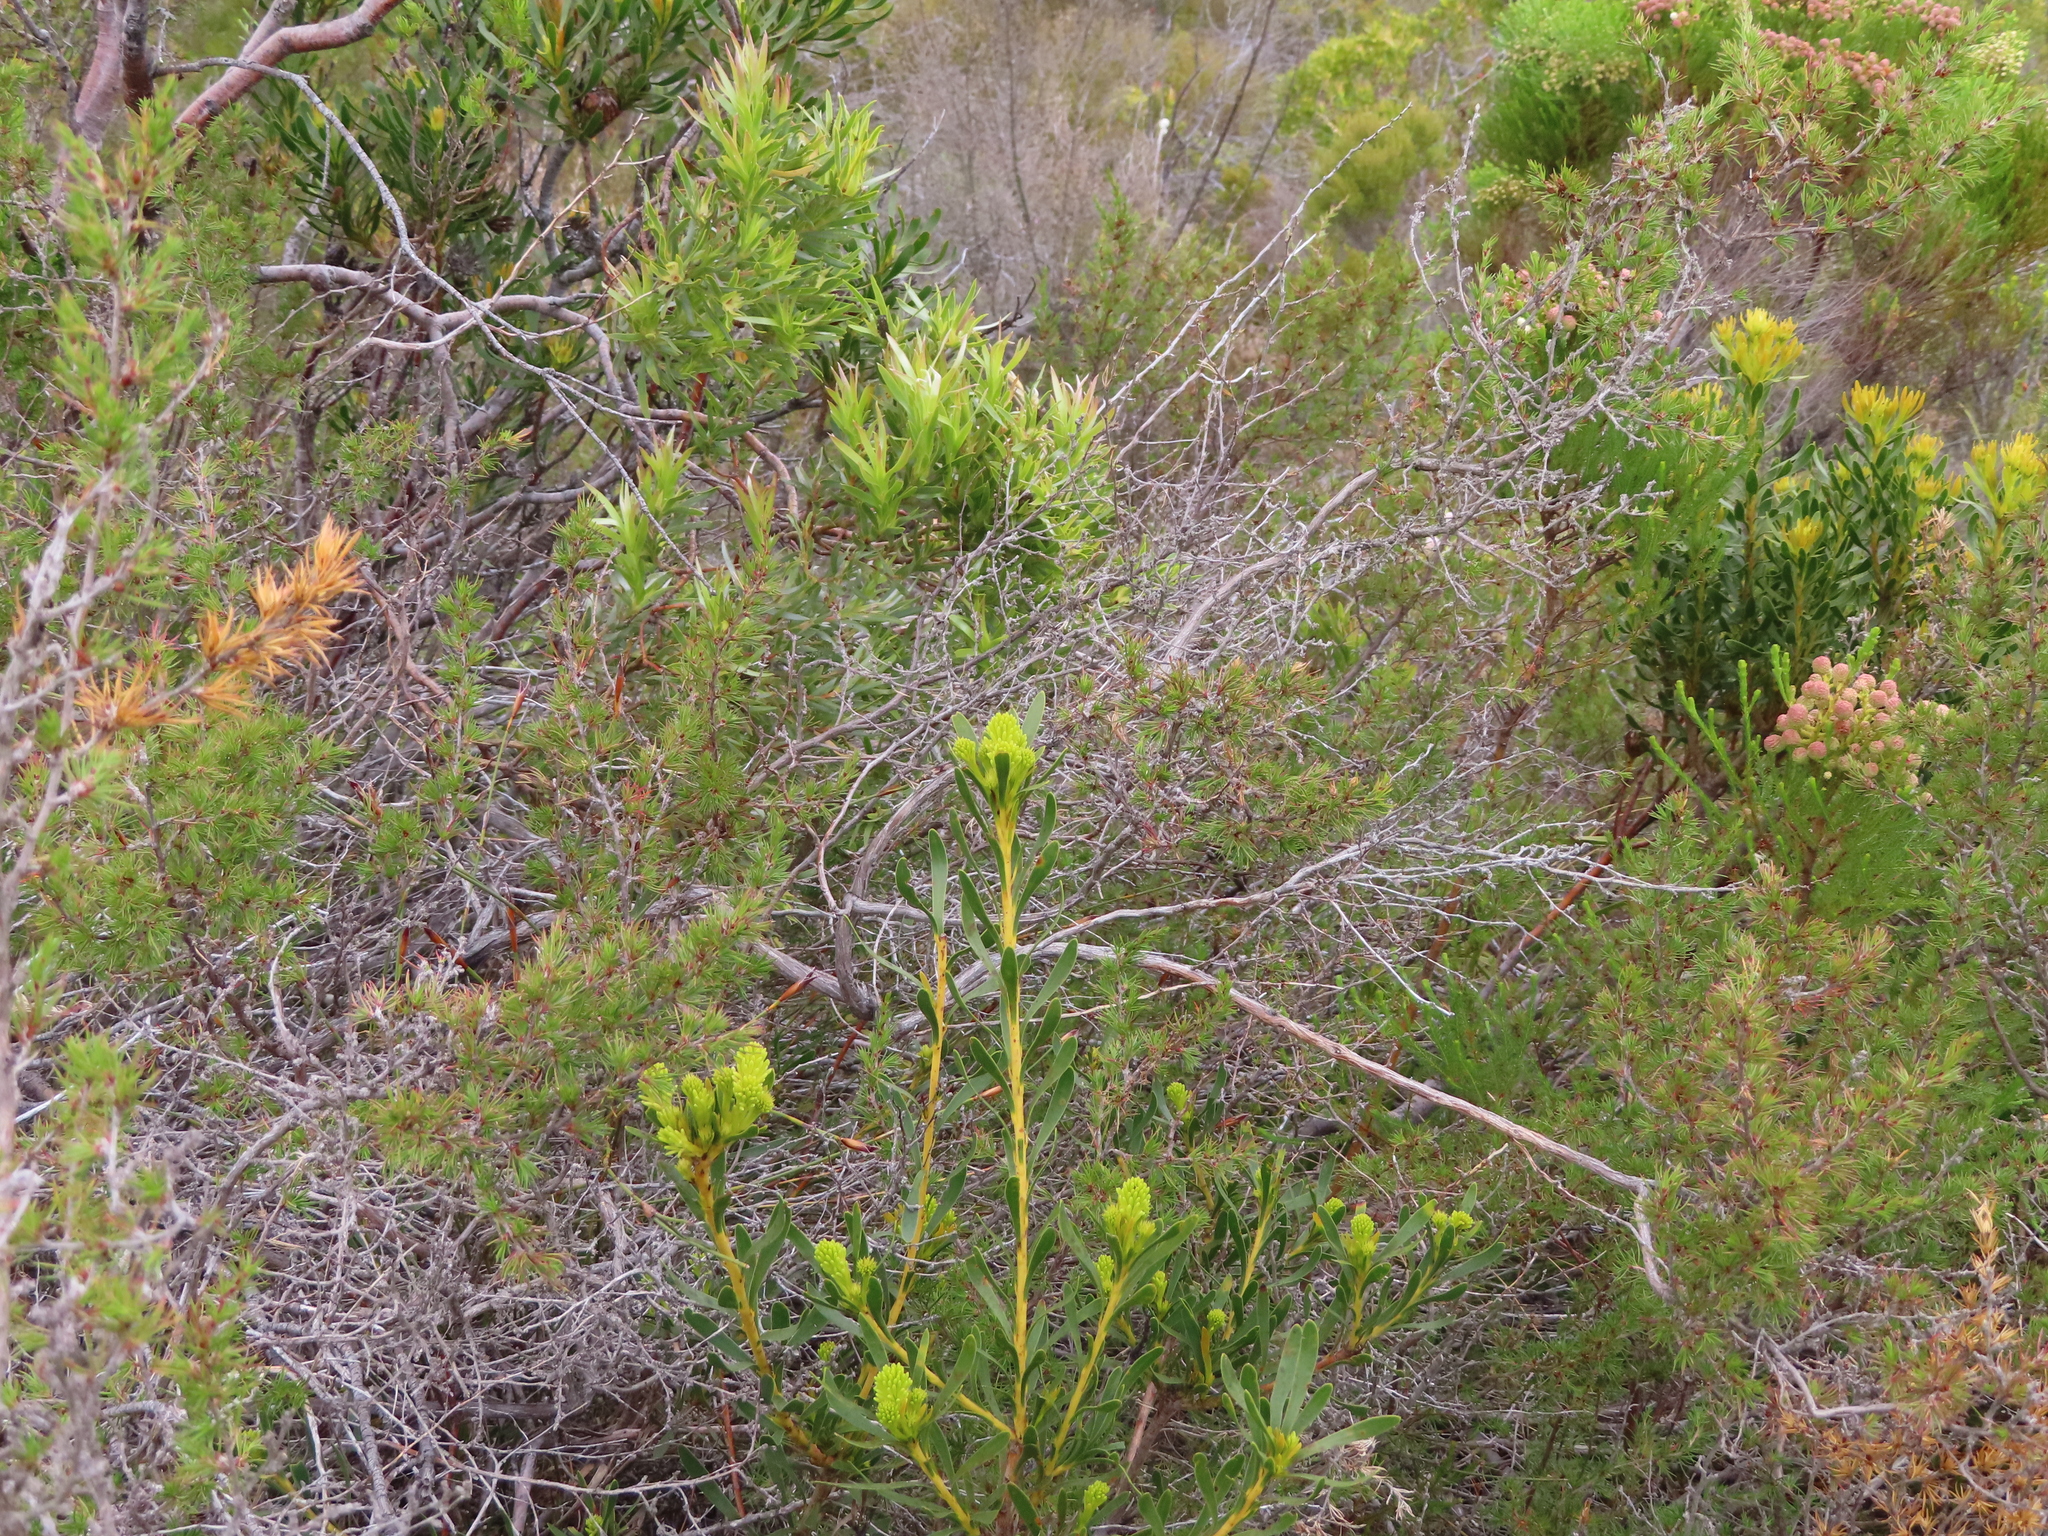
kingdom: Plantae
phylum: Tracheophyta
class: Magnoliopsida
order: Proteales
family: Proteaceae
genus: Aulax
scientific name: Aulax umbellata
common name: Broad-leaf featherbush
